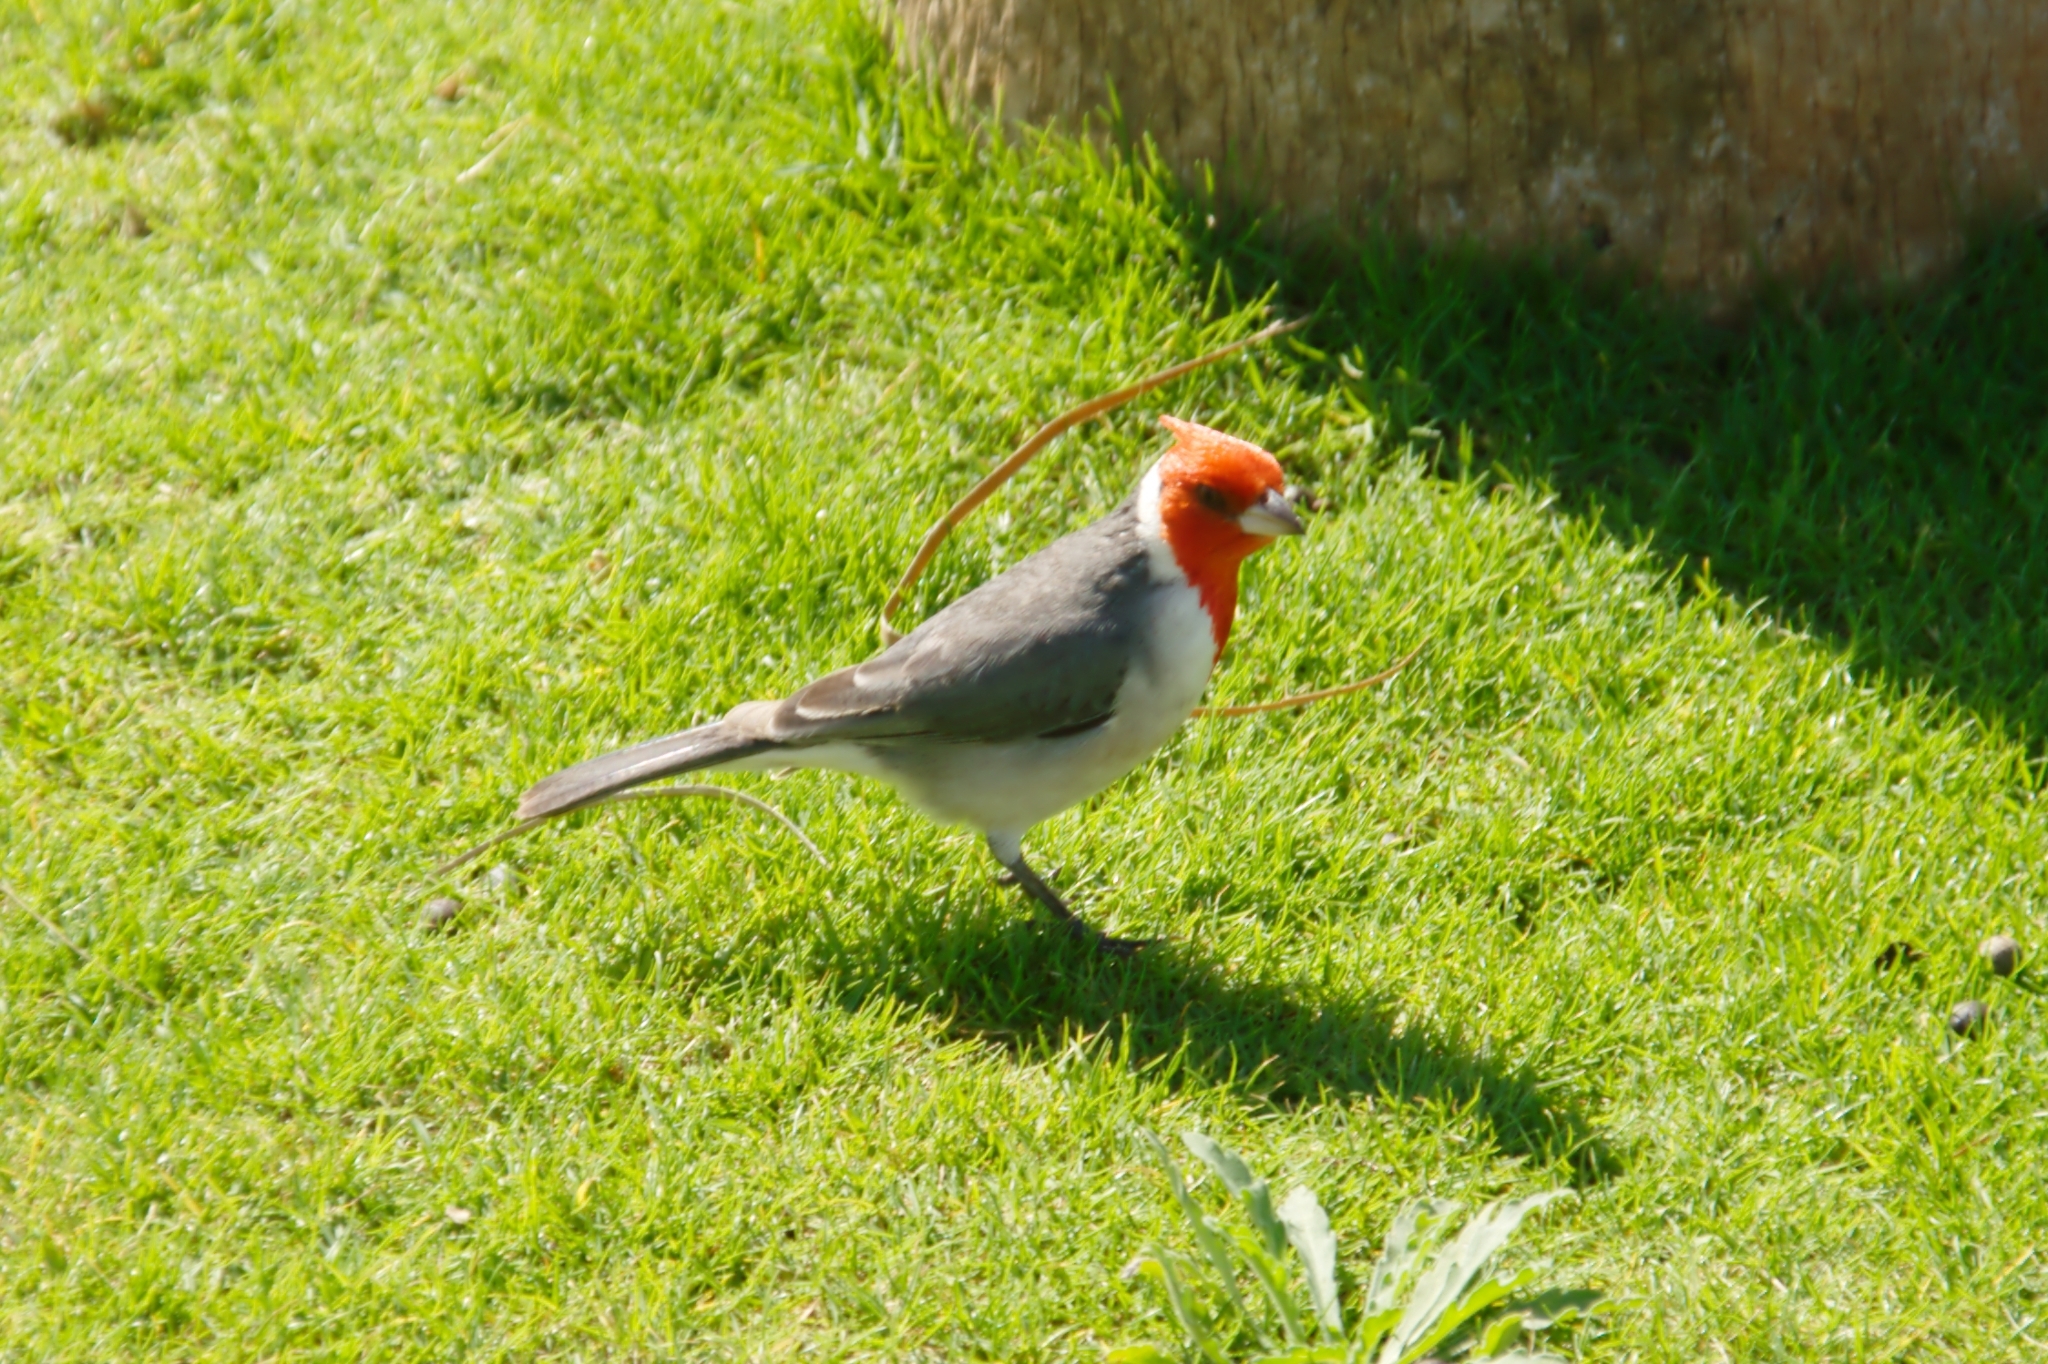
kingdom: Animalia
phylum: Chordata
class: Aves
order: Passeriformes
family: Thraupidae
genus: Paroaria
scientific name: Paroaria coronata
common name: Red-crested cardinal
